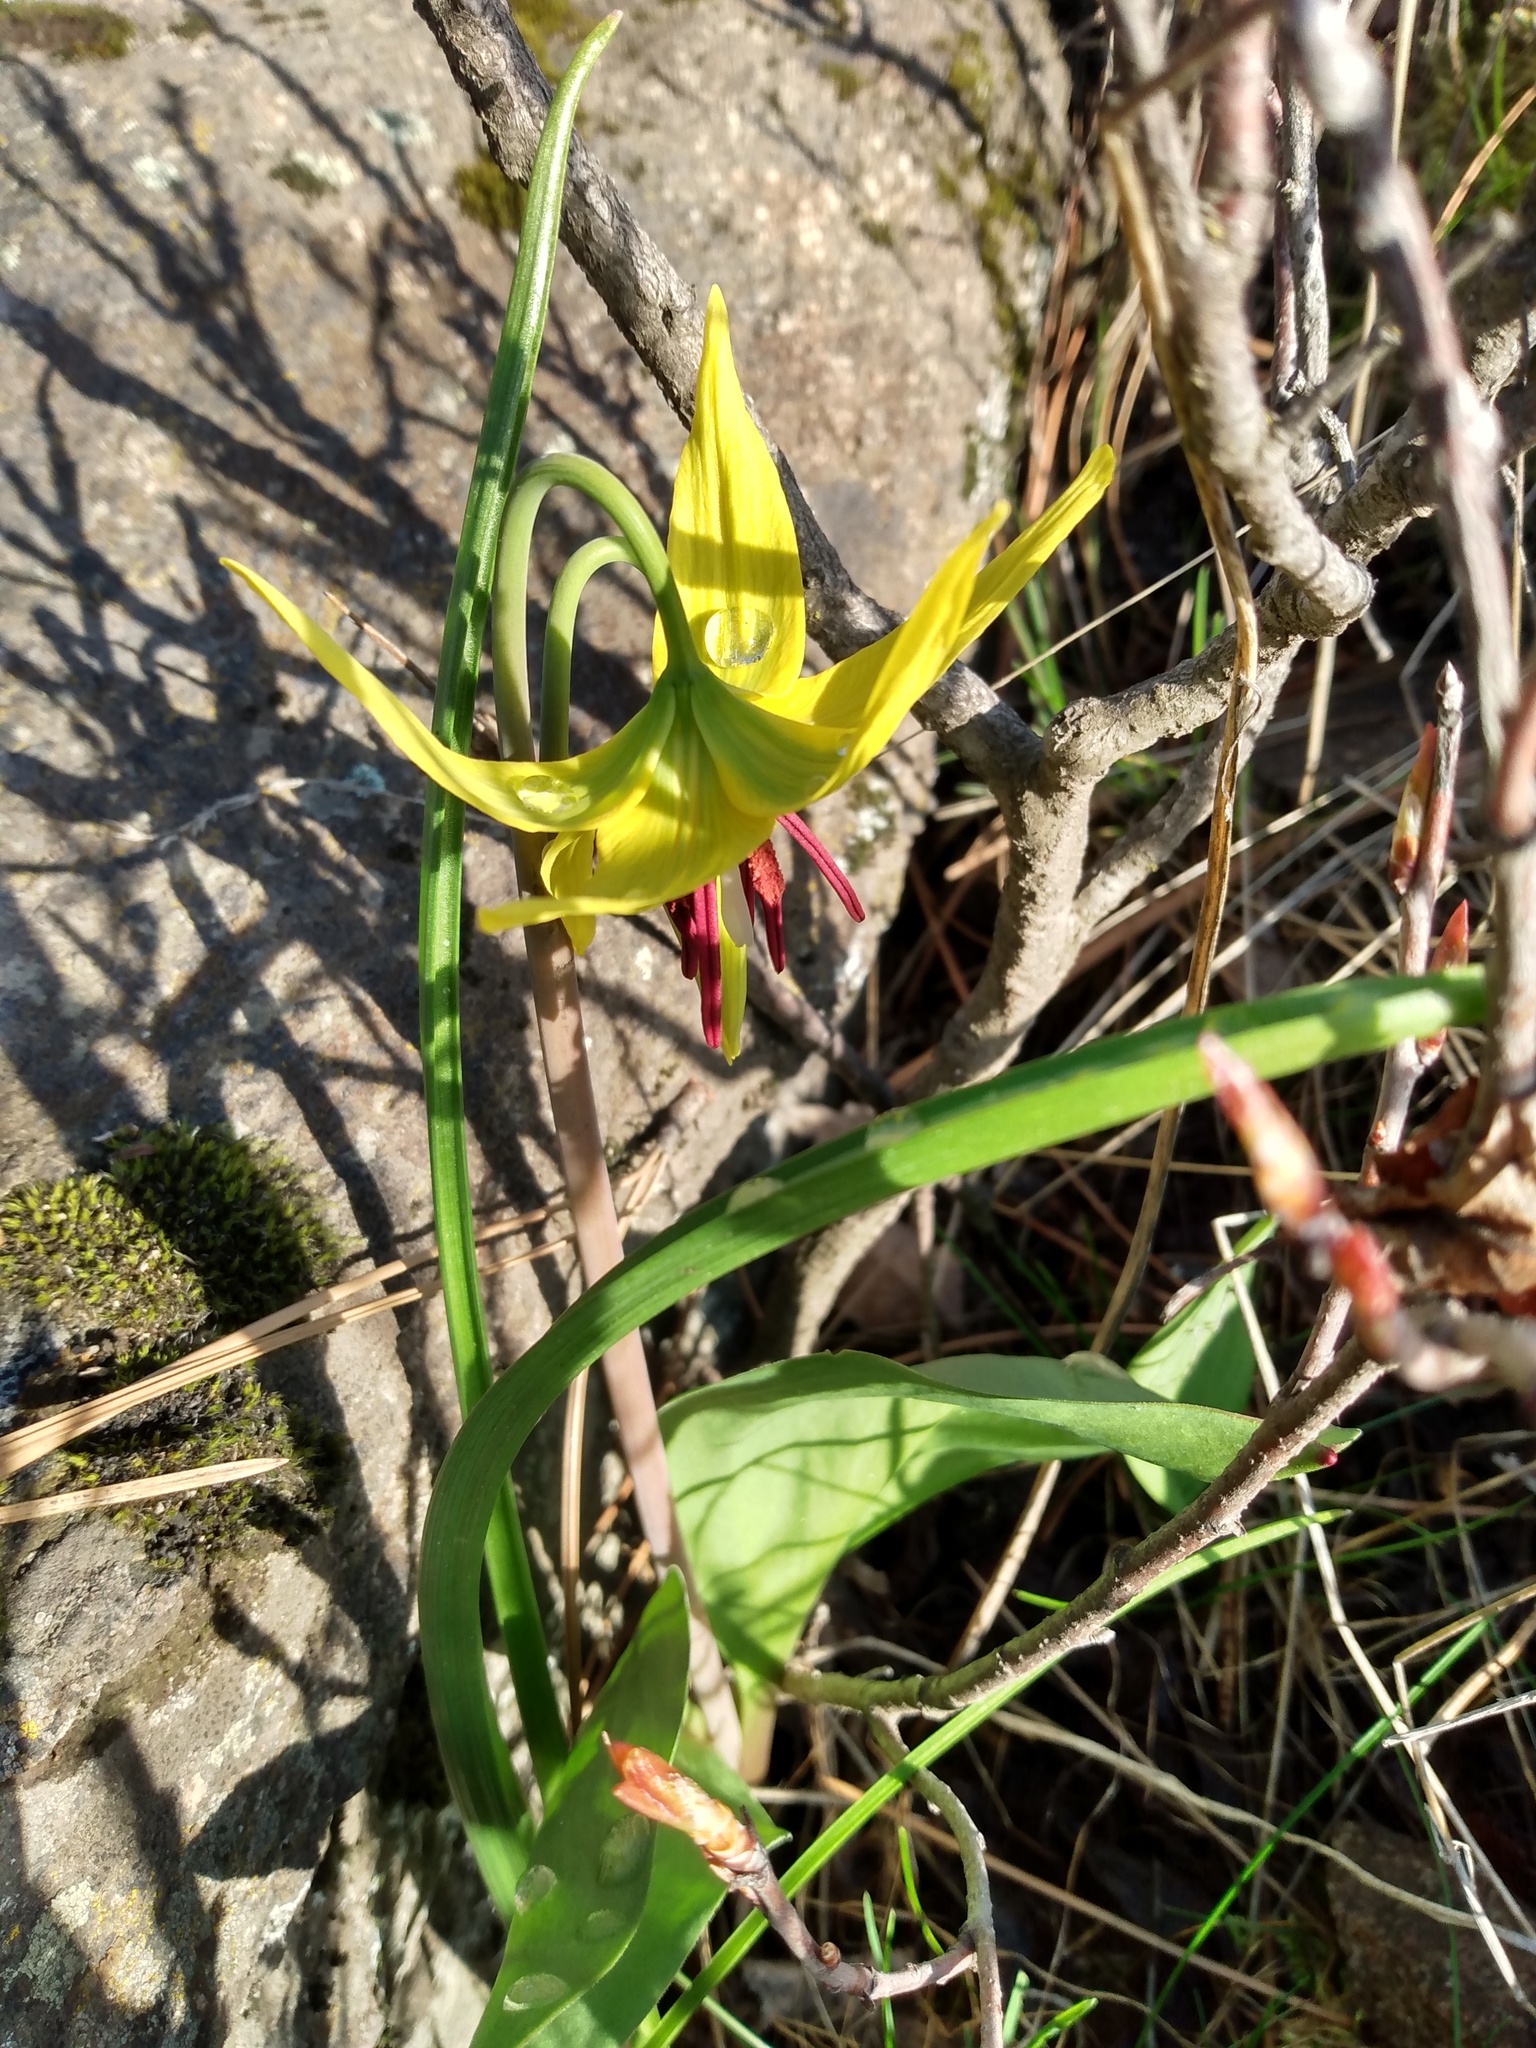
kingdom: Plantae
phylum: Tracheophyta
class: Liliopsida
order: Liliales
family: Liliaceae
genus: Erythronium
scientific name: Erythronium grandiflorum
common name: Avalanche-lily
